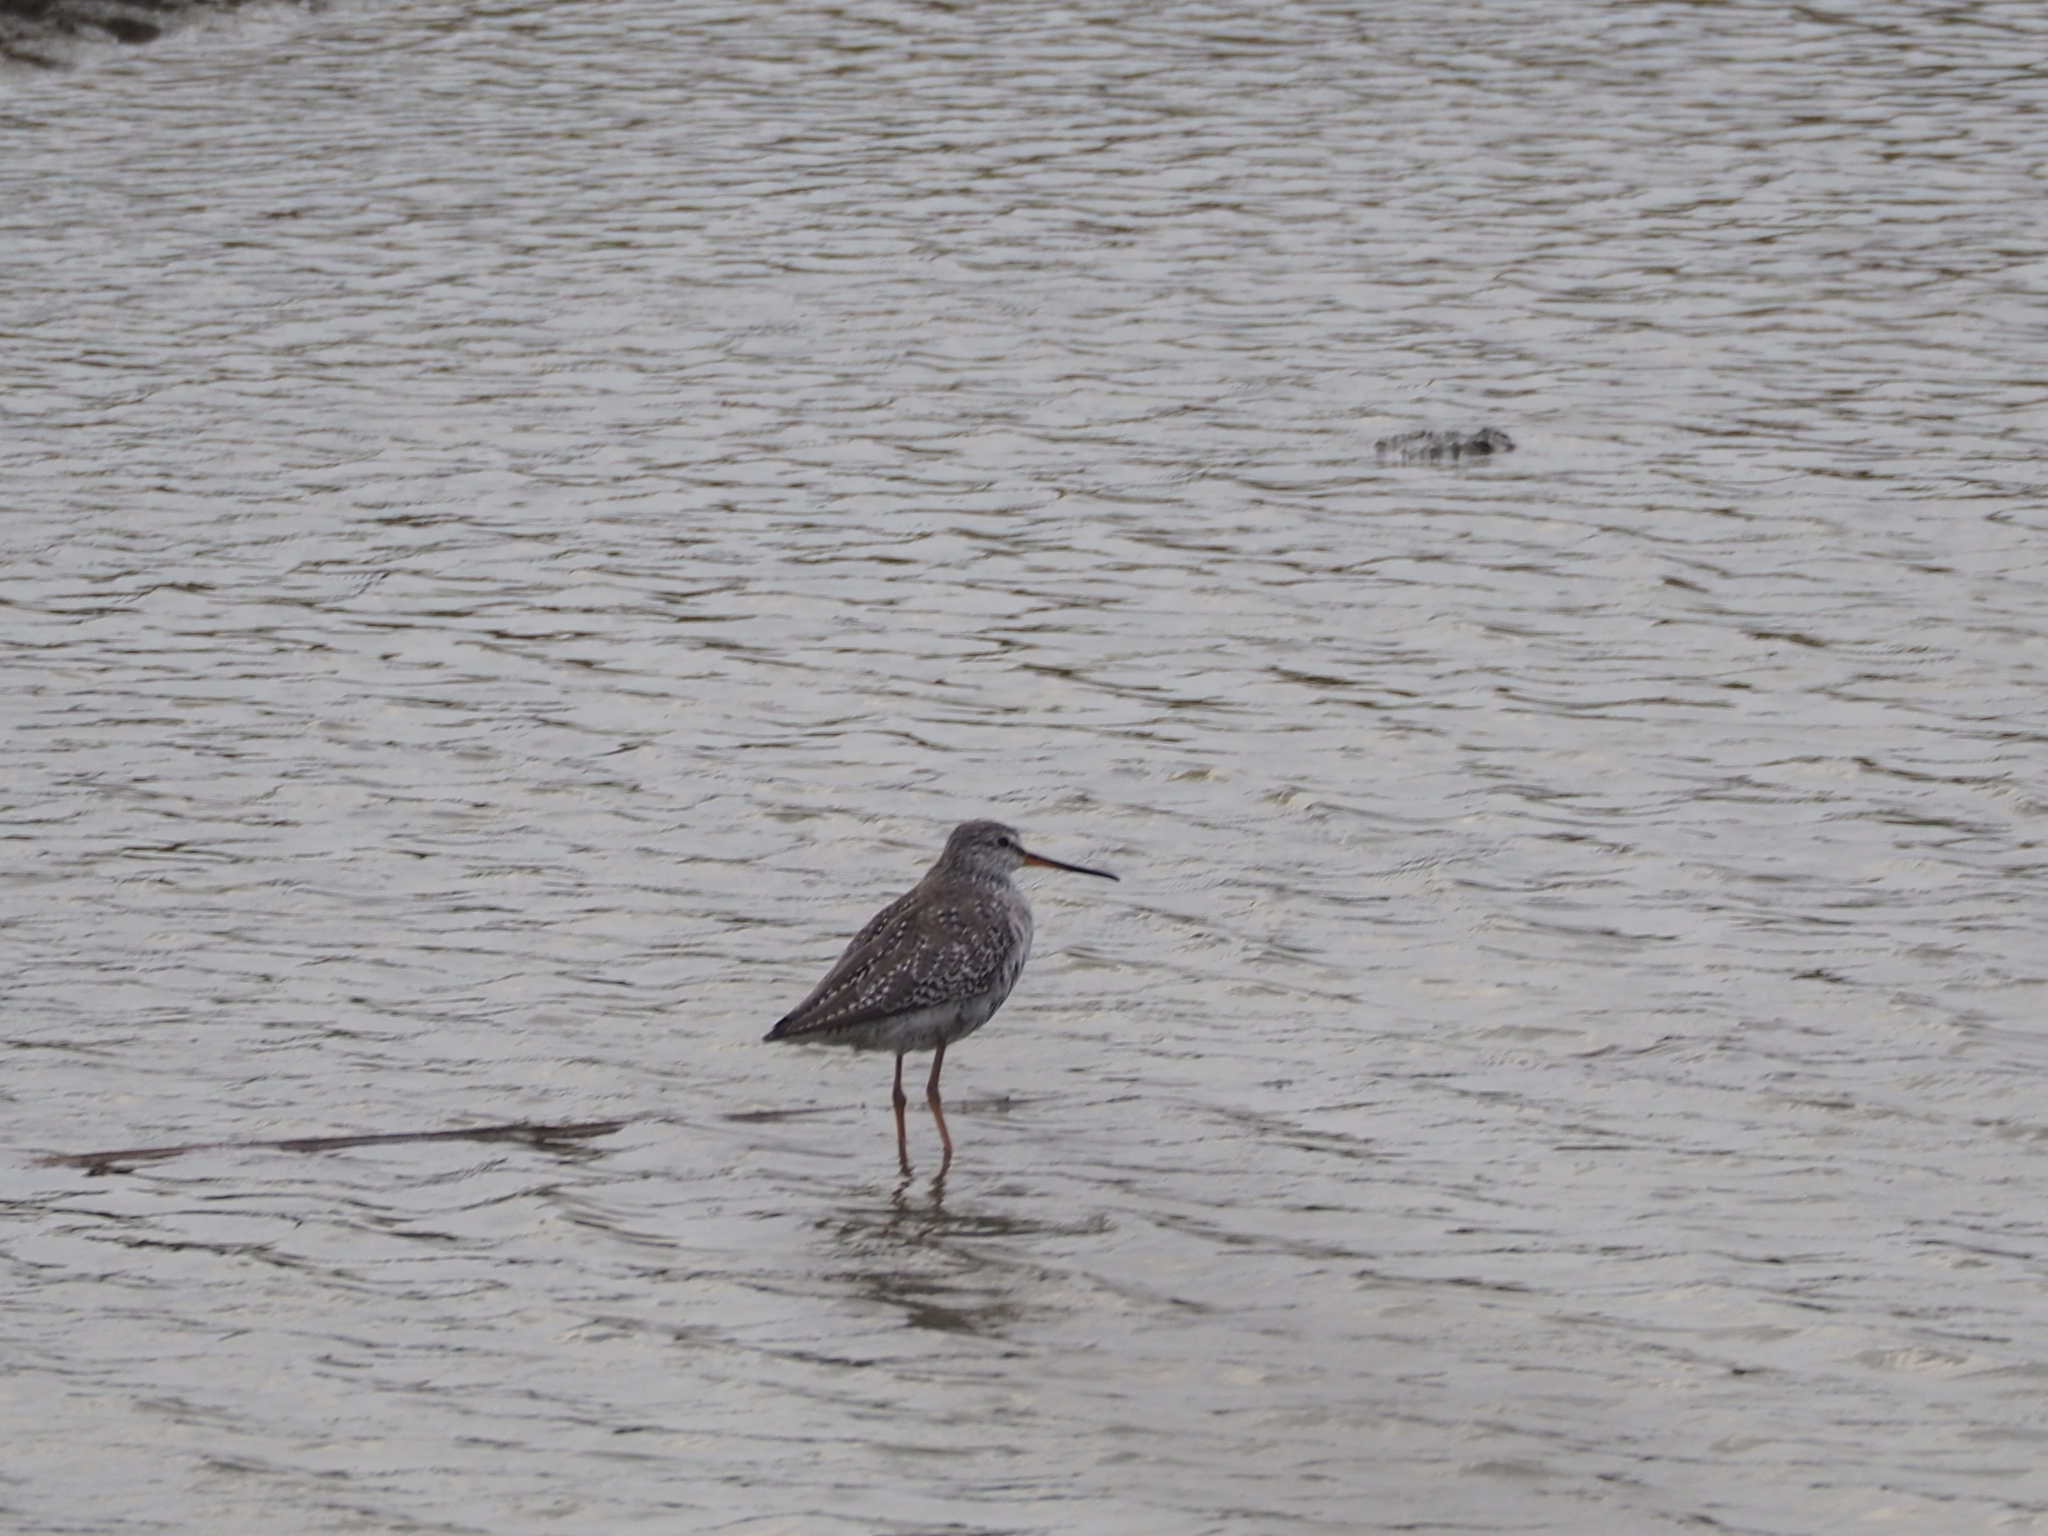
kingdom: Animalia
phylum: Chordata
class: Aves
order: Charadriiformes
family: Scolopacidae
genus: Tringa
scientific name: Tringa erythropus
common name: Spotted redshank
